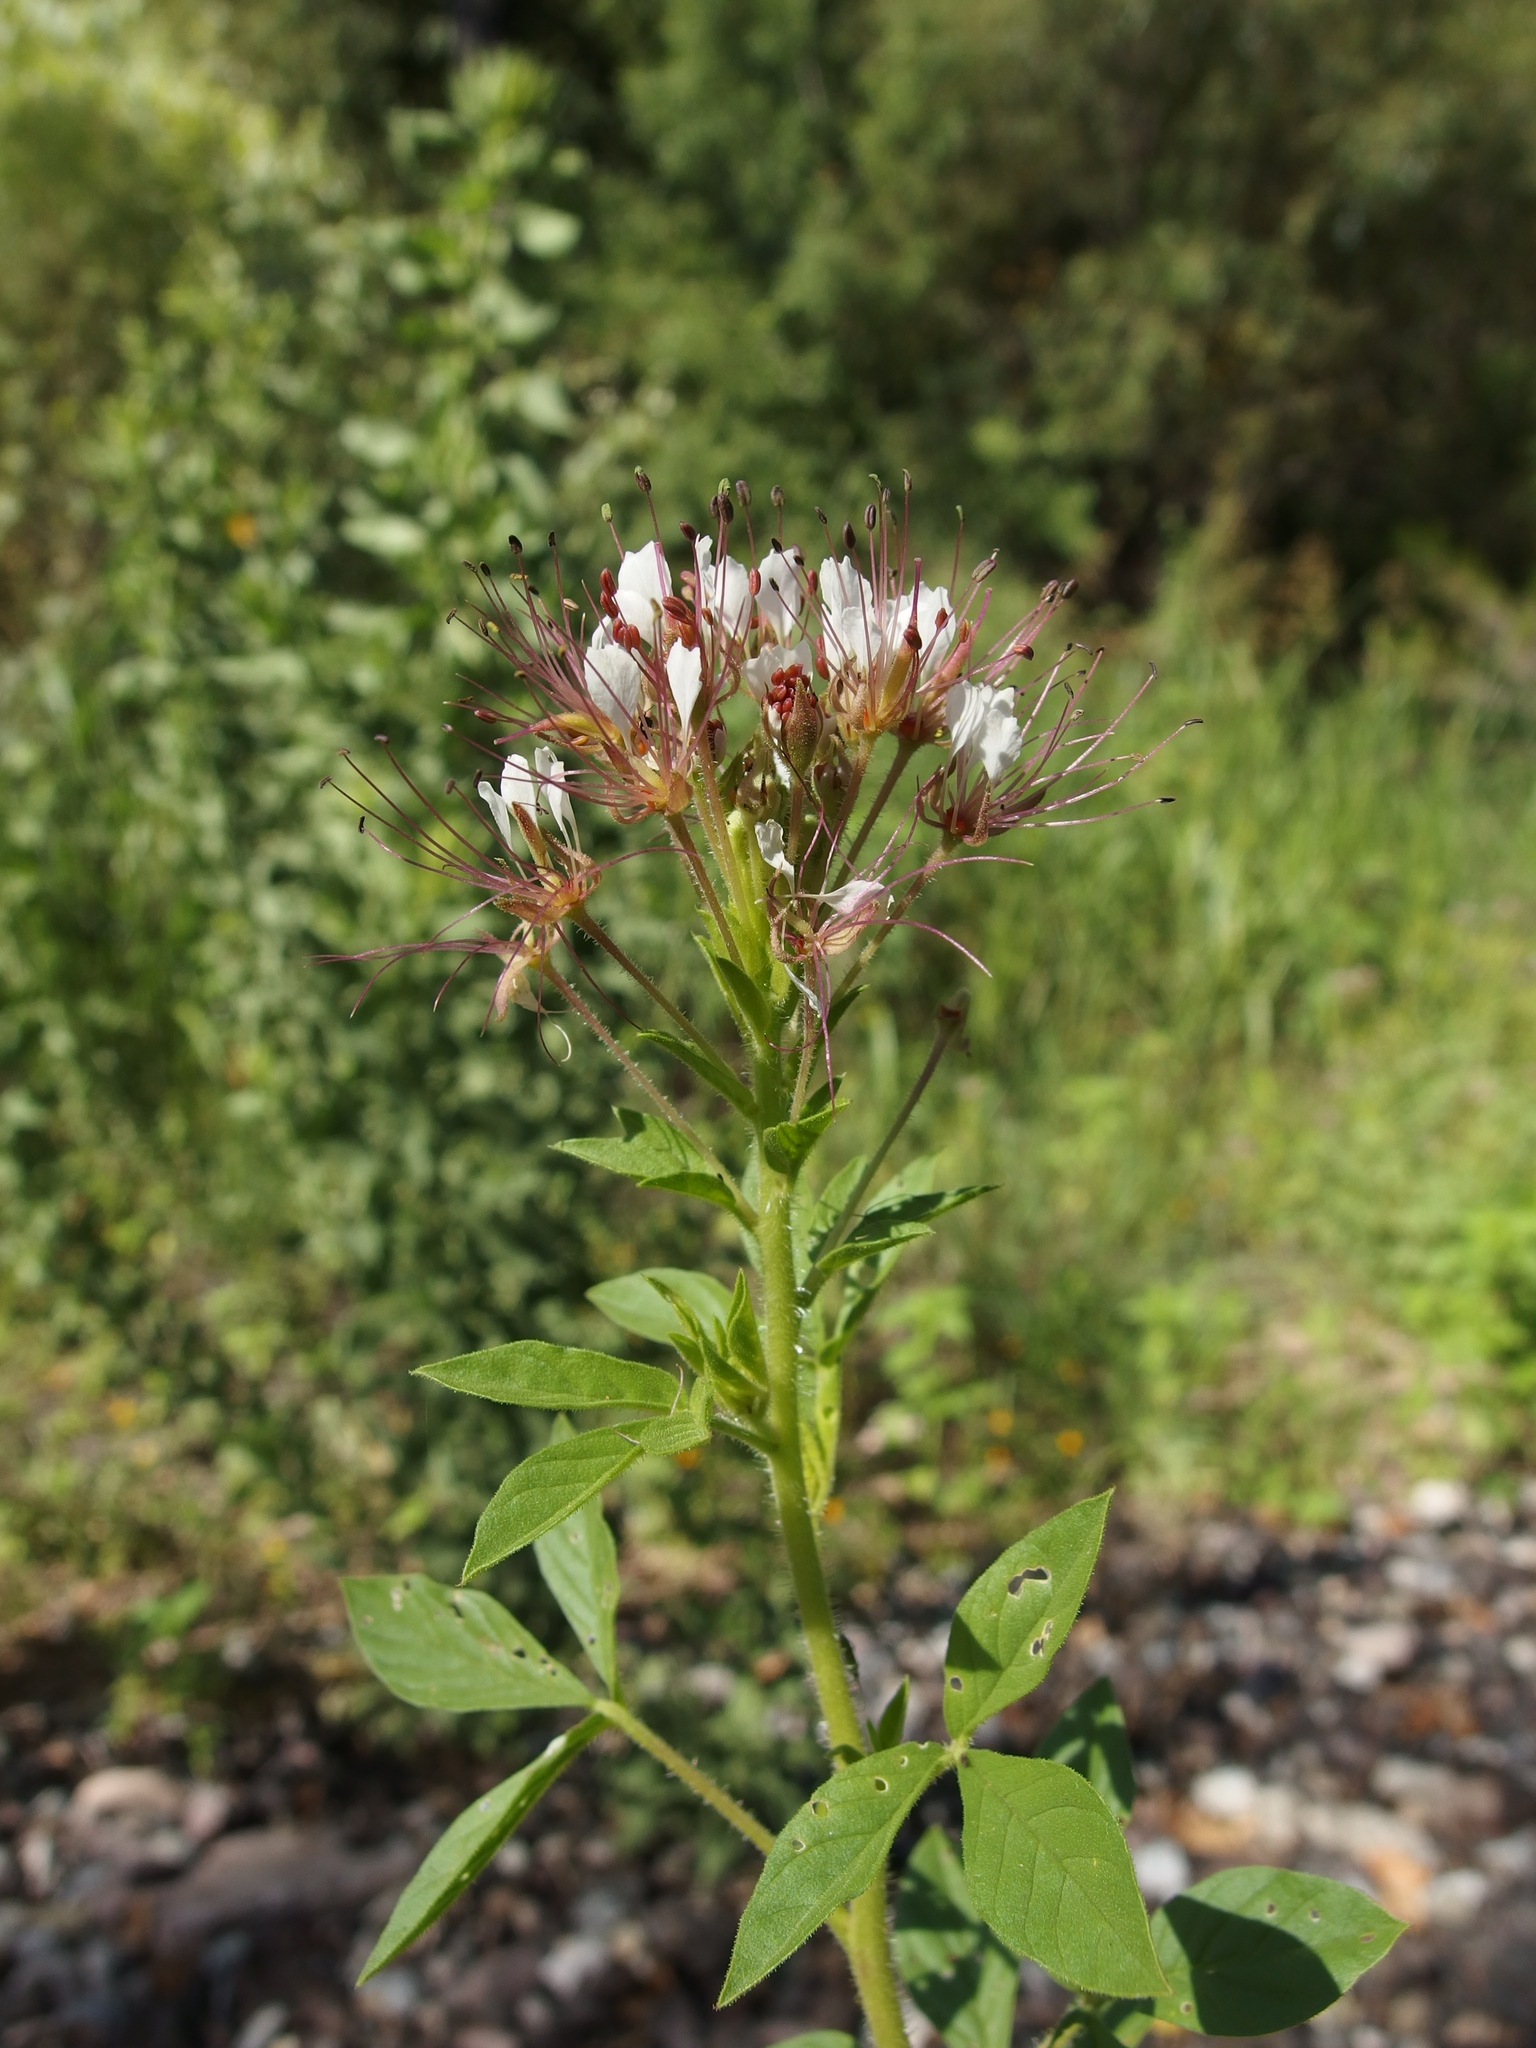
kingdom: Plantae
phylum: Tracheophyta
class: Magnoliopsida
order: Brassicales
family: Cleomaceae
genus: Polanisia
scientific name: Polanisia dodecandra
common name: Clammyweed
